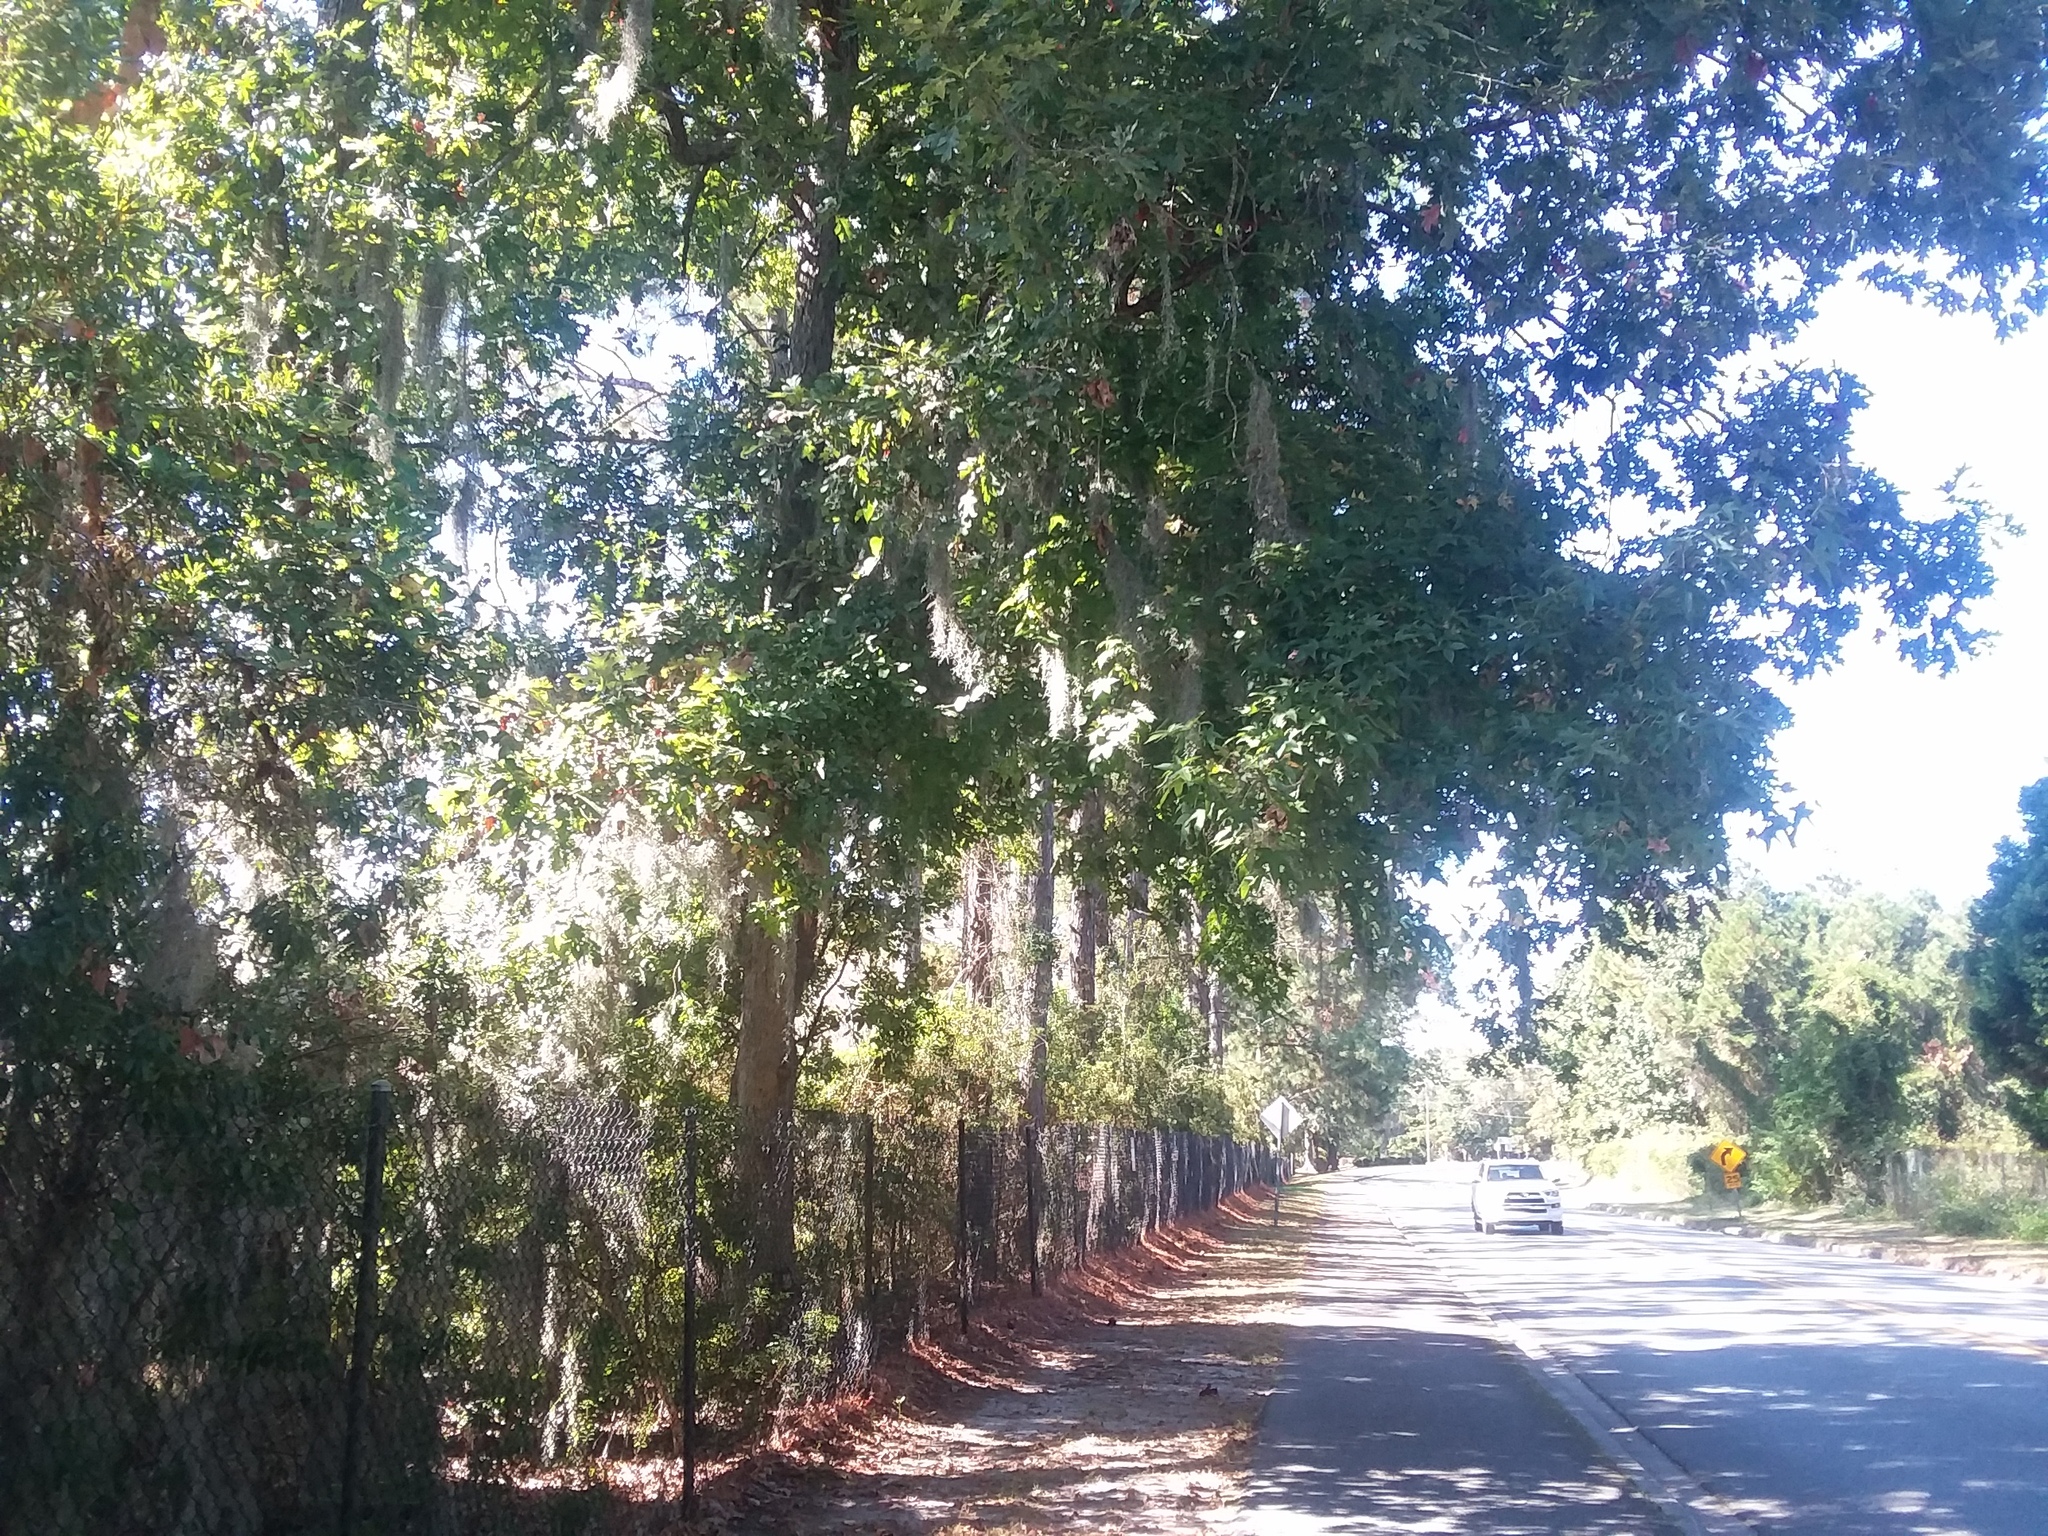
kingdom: Plantae
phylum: Tracheophyta
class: Magnoliopsida
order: Fagales
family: Fagaceae
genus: Quercus
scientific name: Quercus alba
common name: White oak
